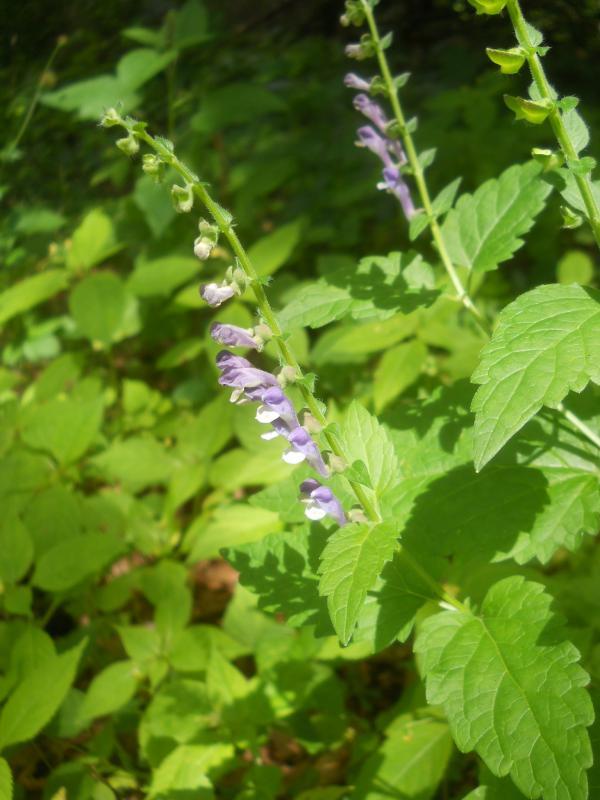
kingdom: Plantae
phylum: Tracheophyta
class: Magnoliopsida
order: Lamiales
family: Lamiaceae
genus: Scutellaria
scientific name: Scutellaria altissima
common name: Somerset skullcap
